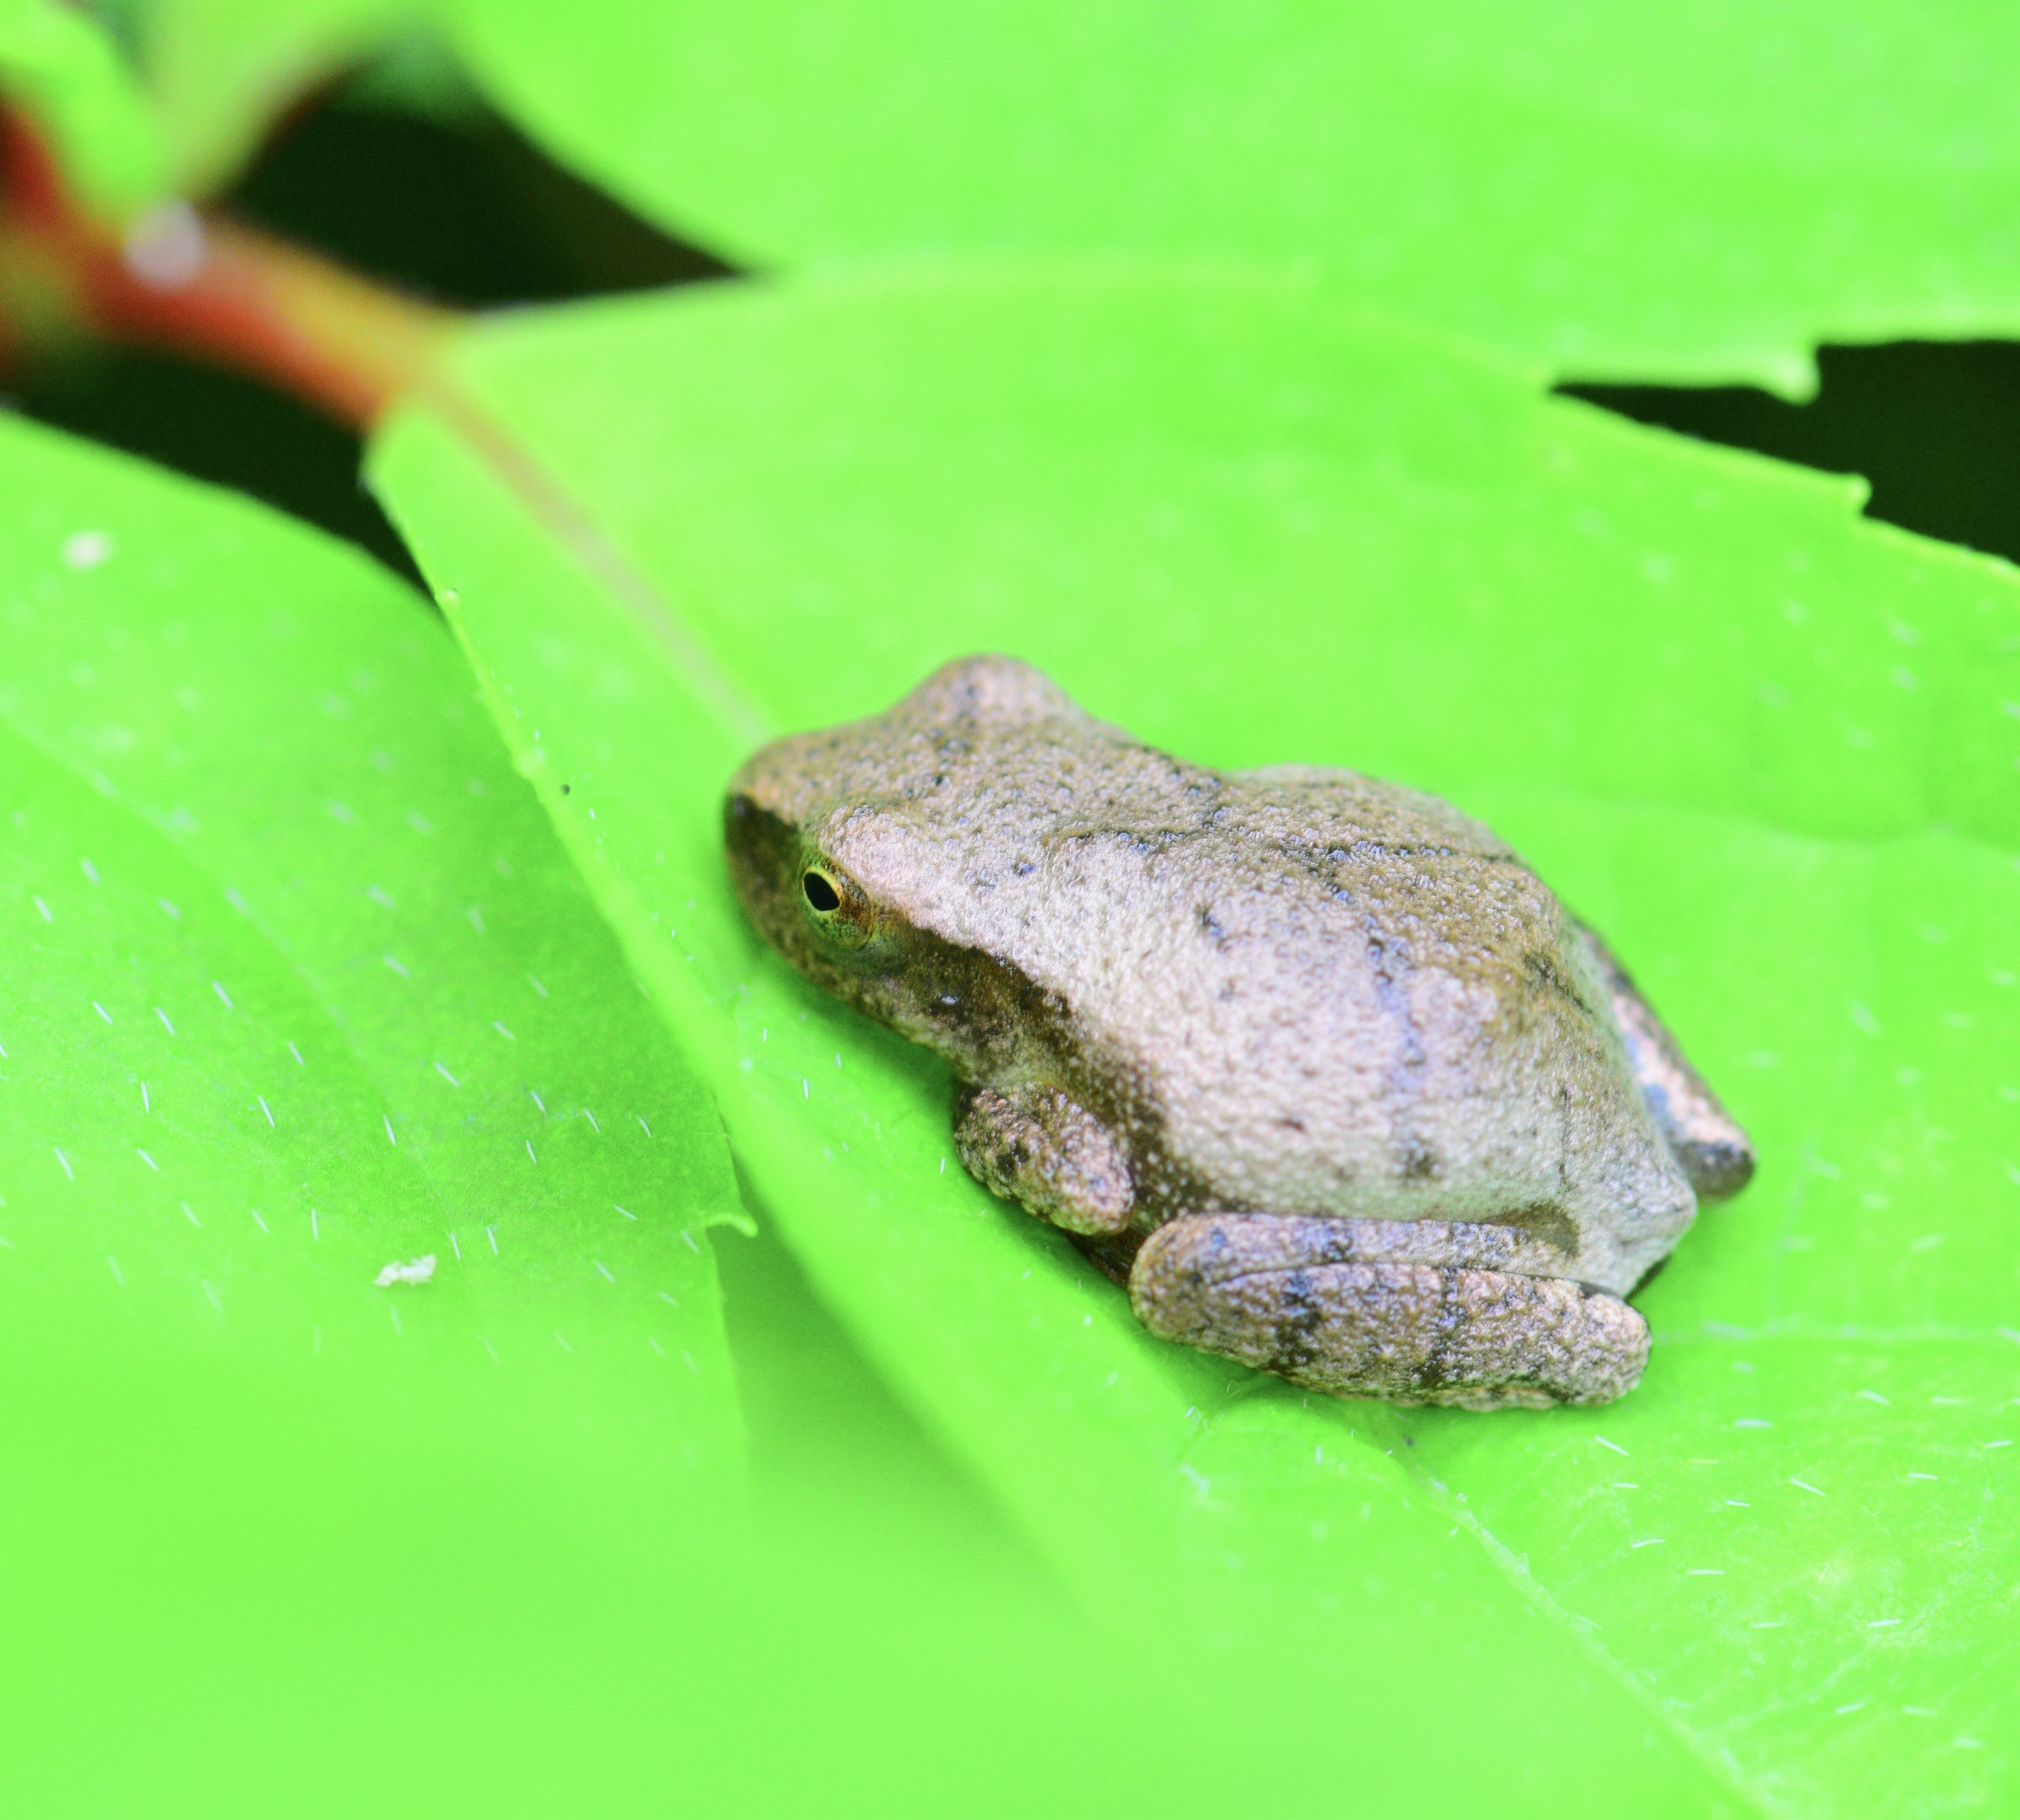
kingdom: Animalia
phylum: Chordata
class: Amphibia
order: Anura
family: Hylidae
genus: Pseudacris
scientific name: Pseudacris crucifer
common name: Spring peeper
